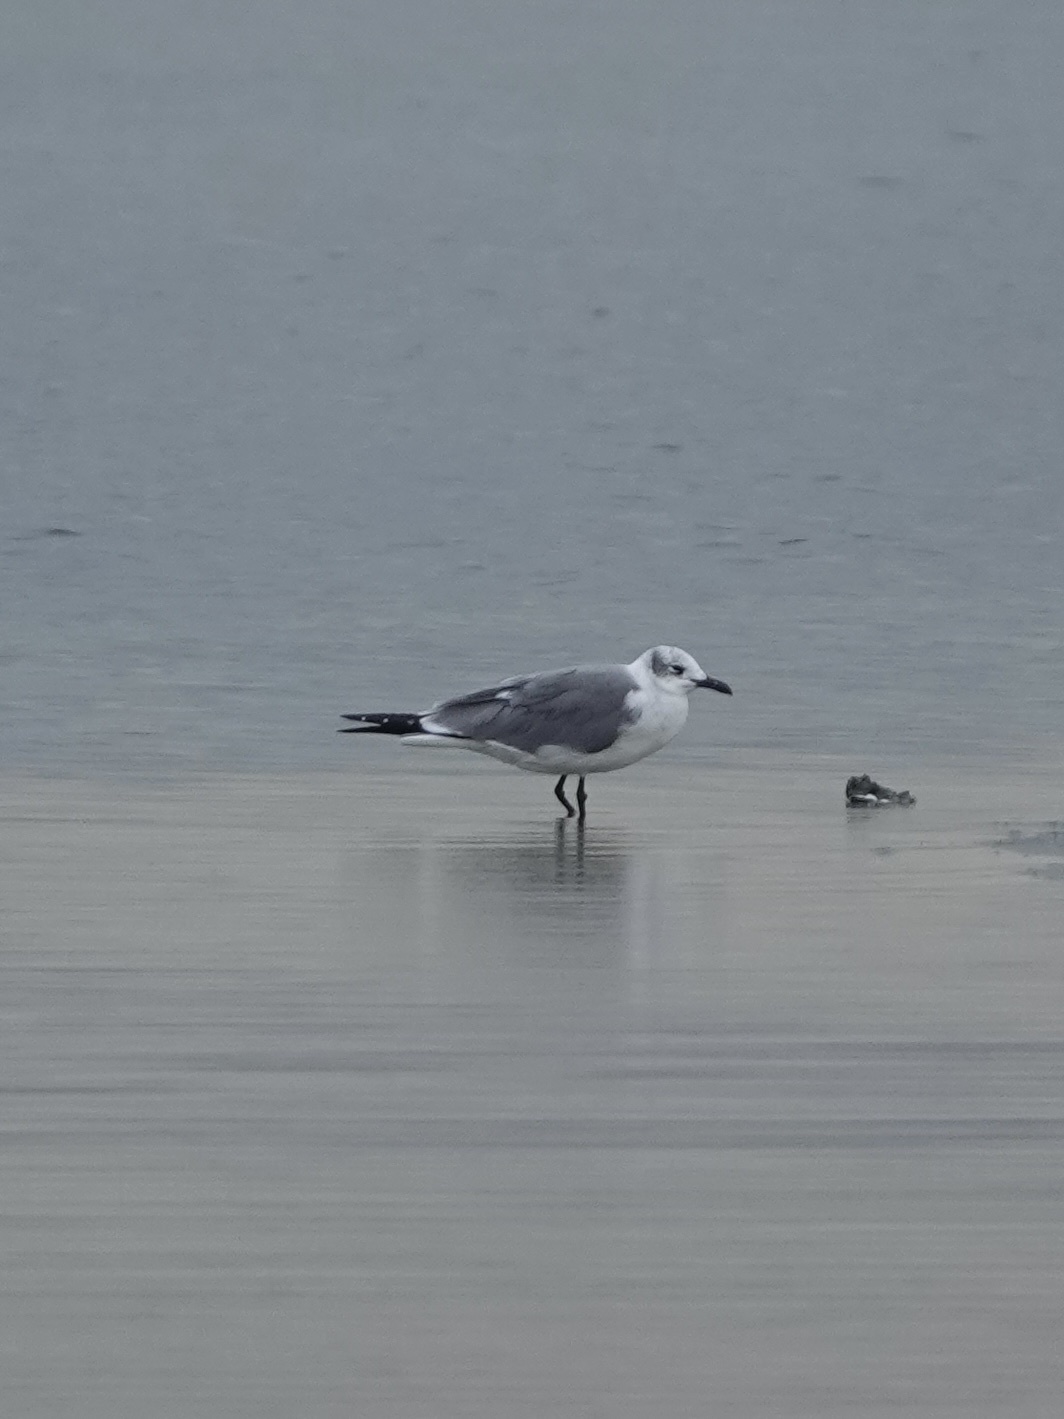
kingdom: Animalia
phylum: Chordata
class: Aves
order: Charadriiformes
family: Laridae
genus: Leucophaeus
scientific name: Leucophaeus atricilla
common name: Laughing gull
